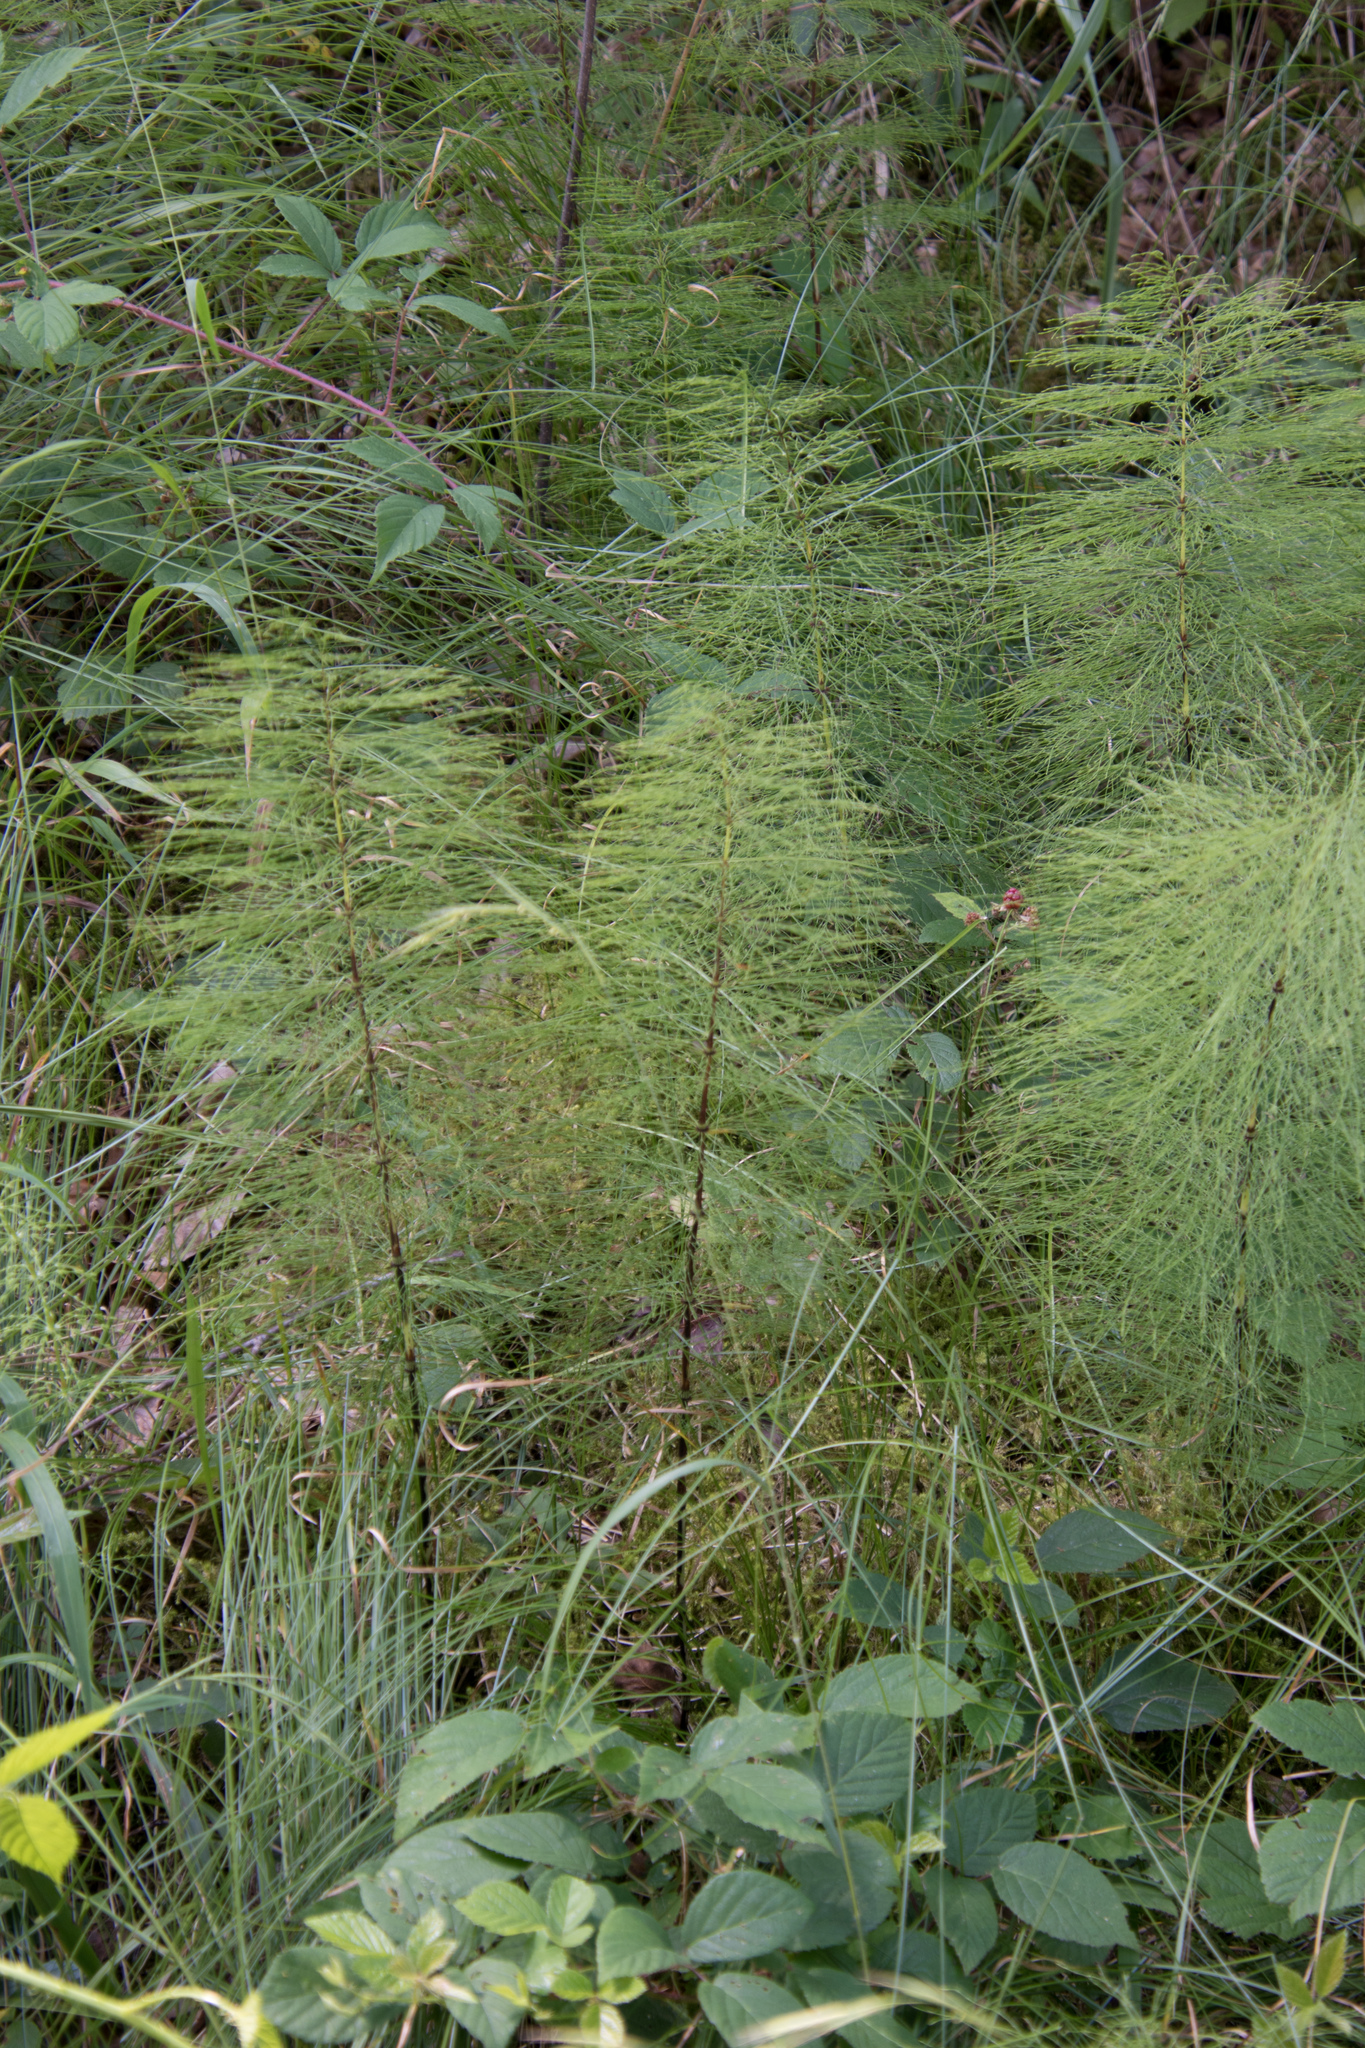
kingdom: Plantae
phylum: Tracheophyta
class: Polypodiopsida
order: Equisetales
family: Equisetaceae
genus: Equisetum
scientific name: Equisetum sylvaticum
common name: Wood horsetail
